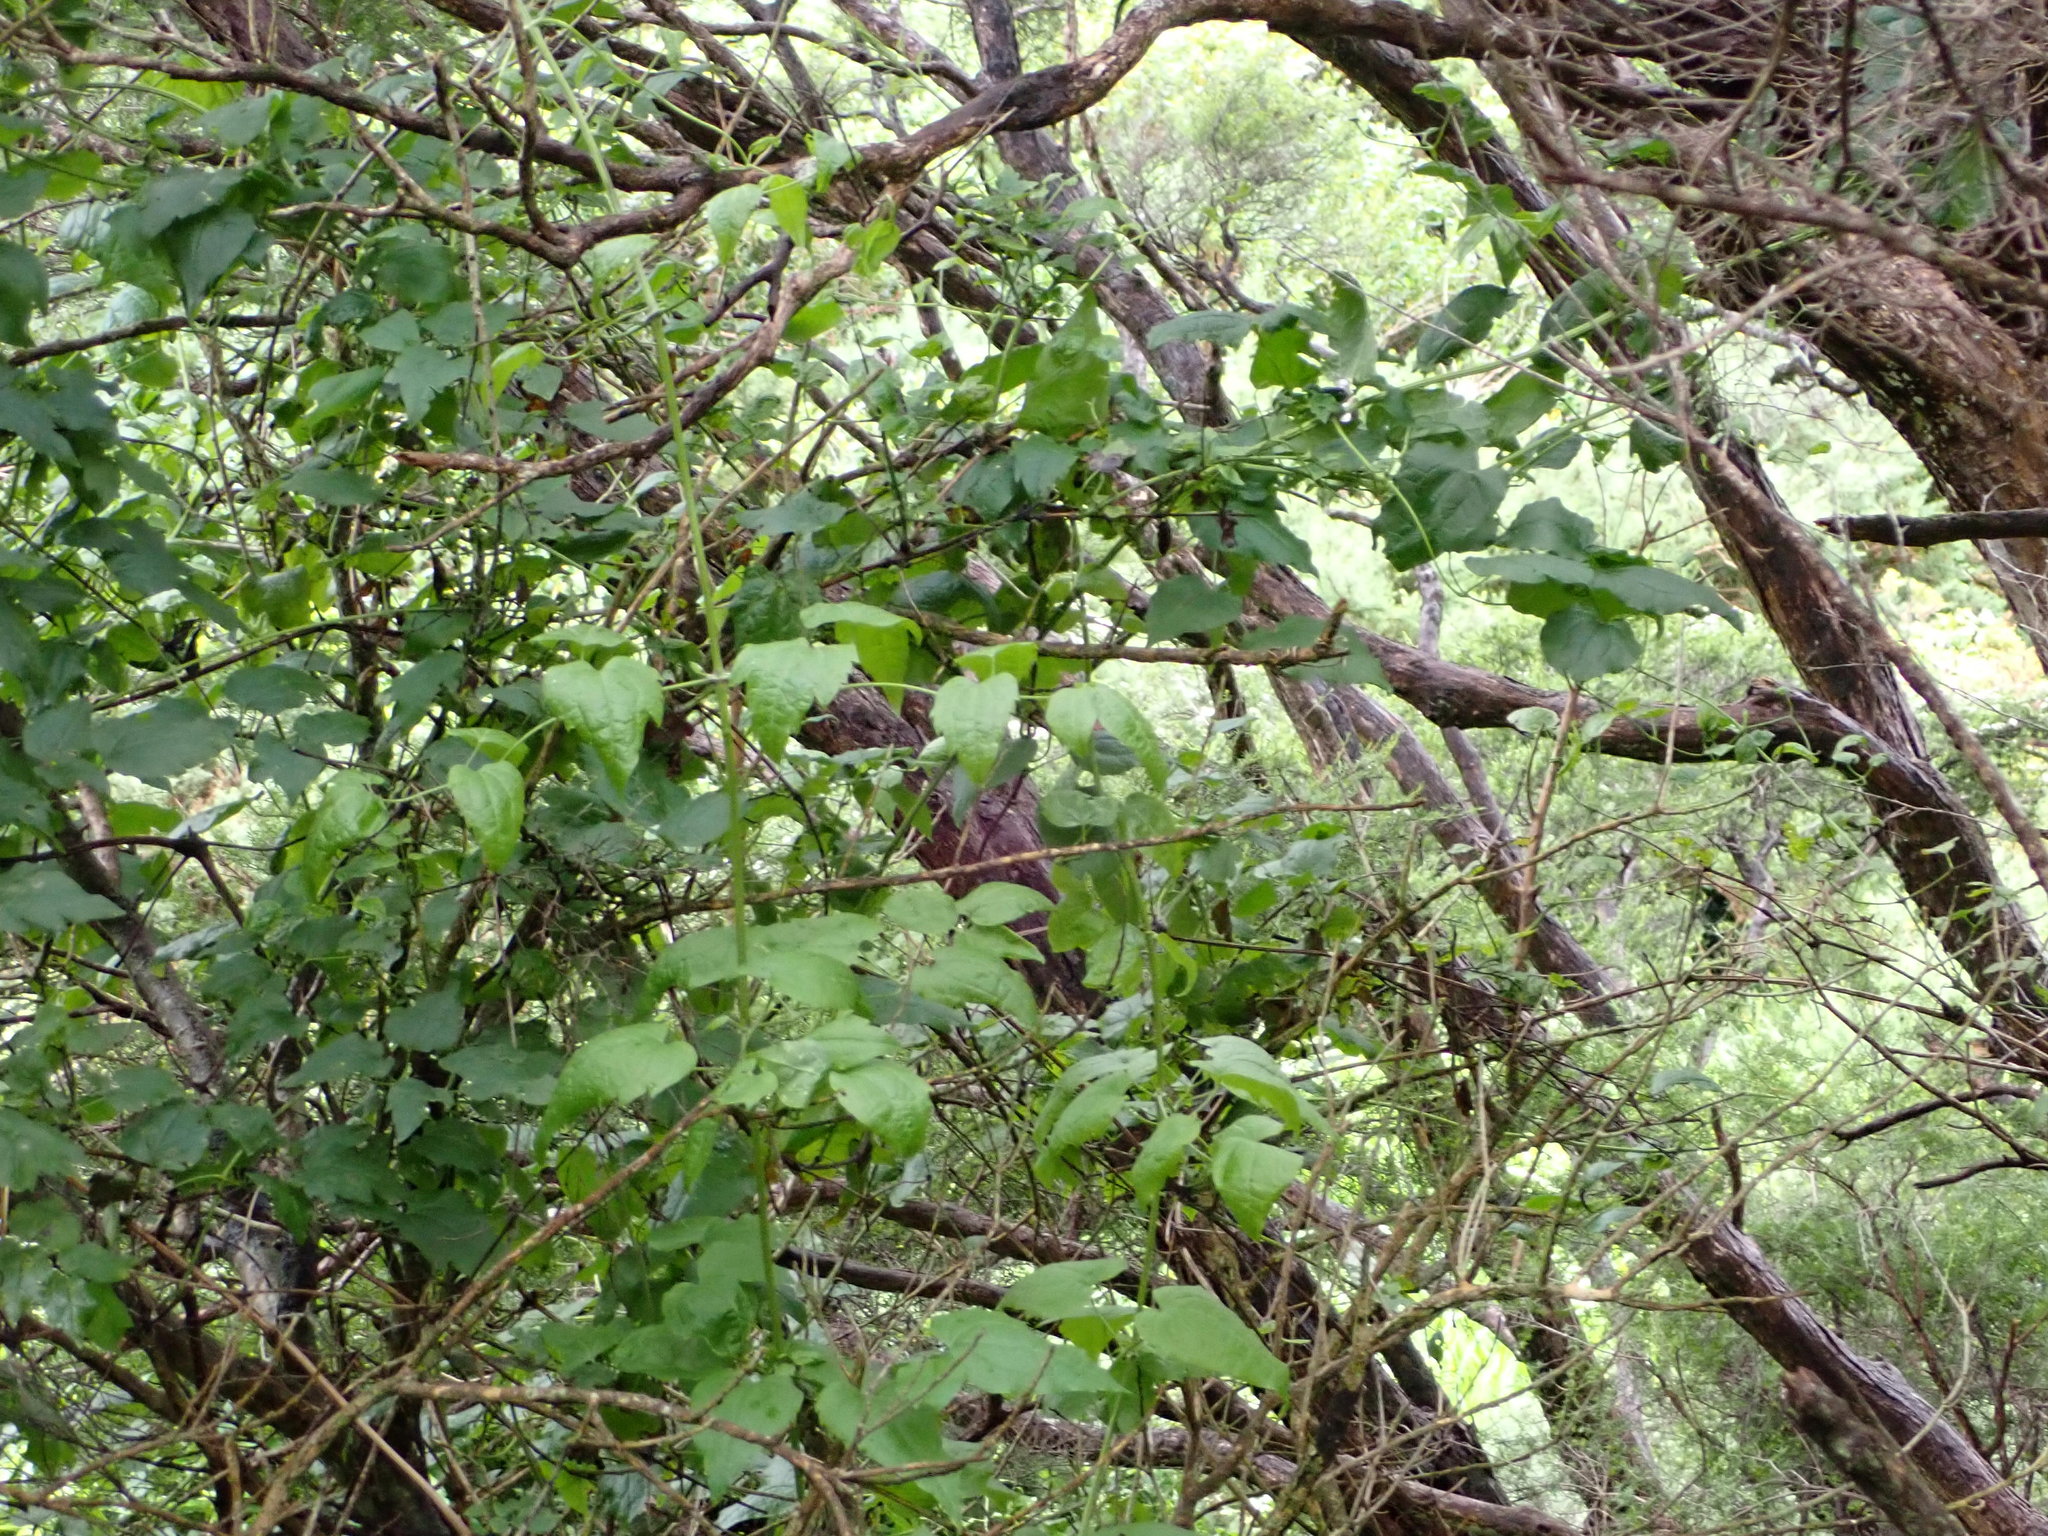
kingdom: Plantae
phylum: Tracheophyta
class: Magnoliopsida
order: Ranunculales
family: Ranunculaceae
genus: Clematis
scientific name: Clematis vitalba
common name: Evergreen clematis
